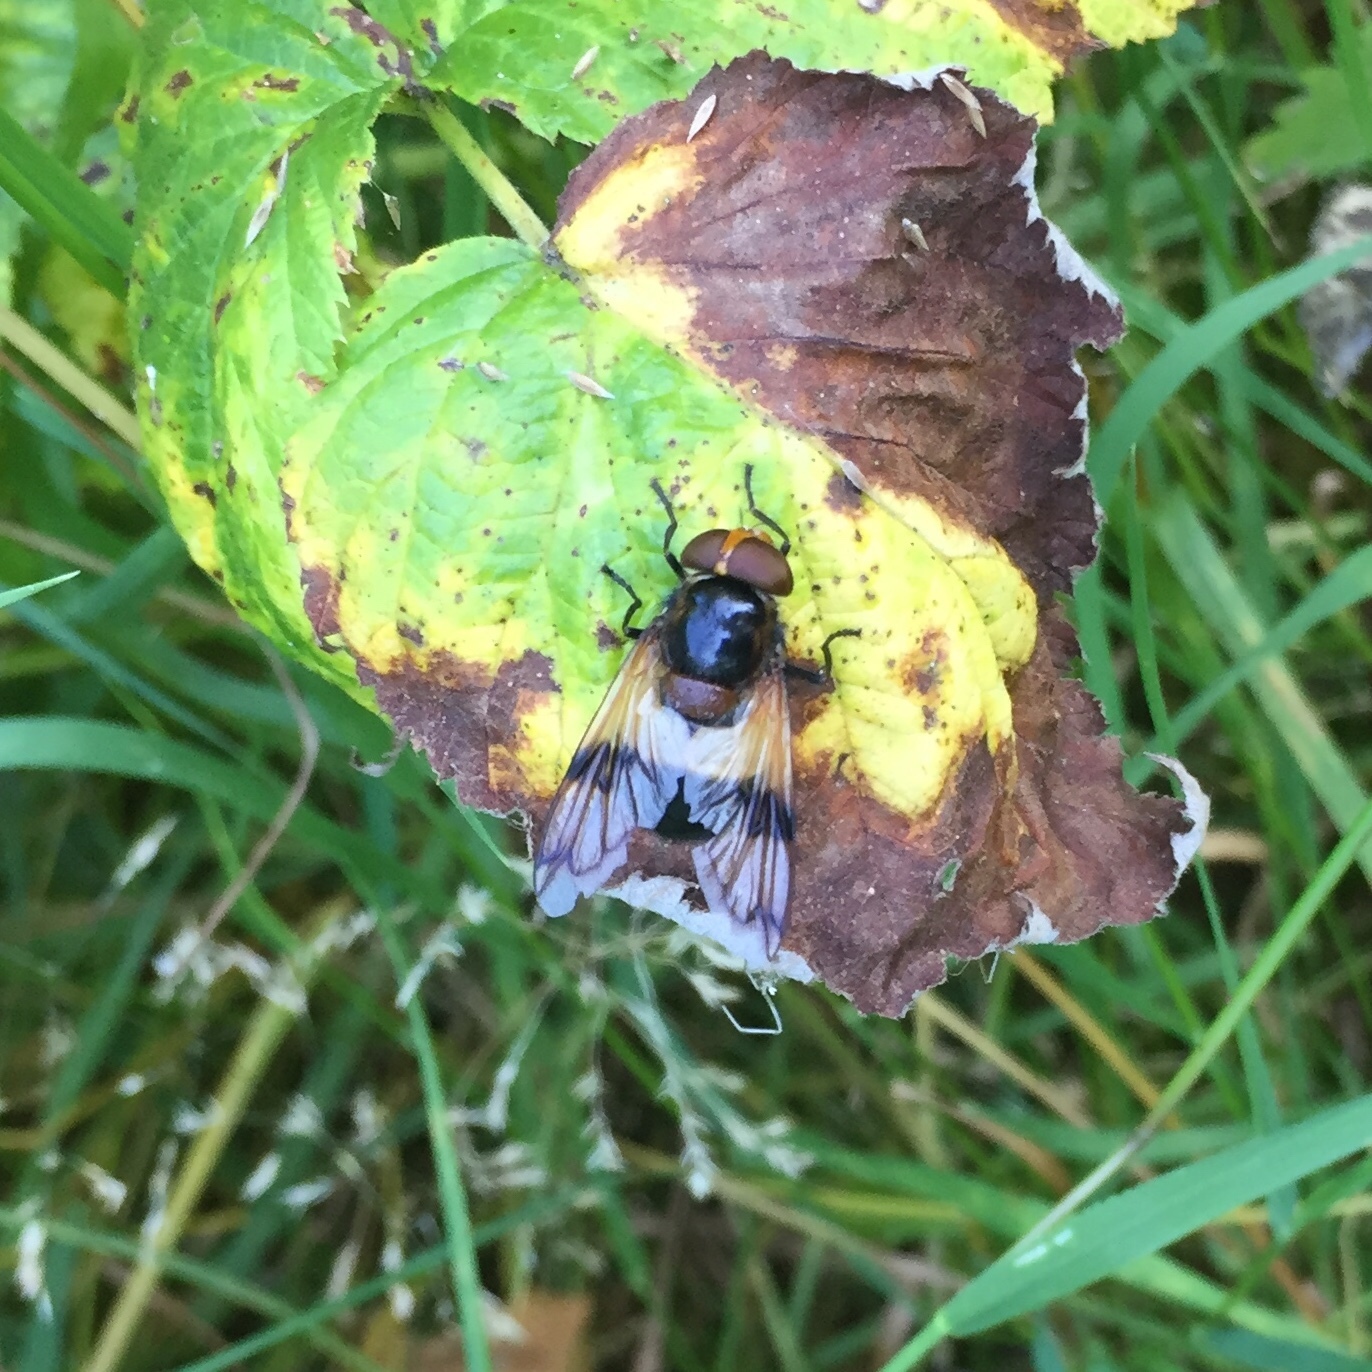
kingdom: Animalia
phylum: Arthropoda
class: Insecta
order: Diptera
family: Syrphidae
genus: Volucella
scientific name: Volucella pellucens
